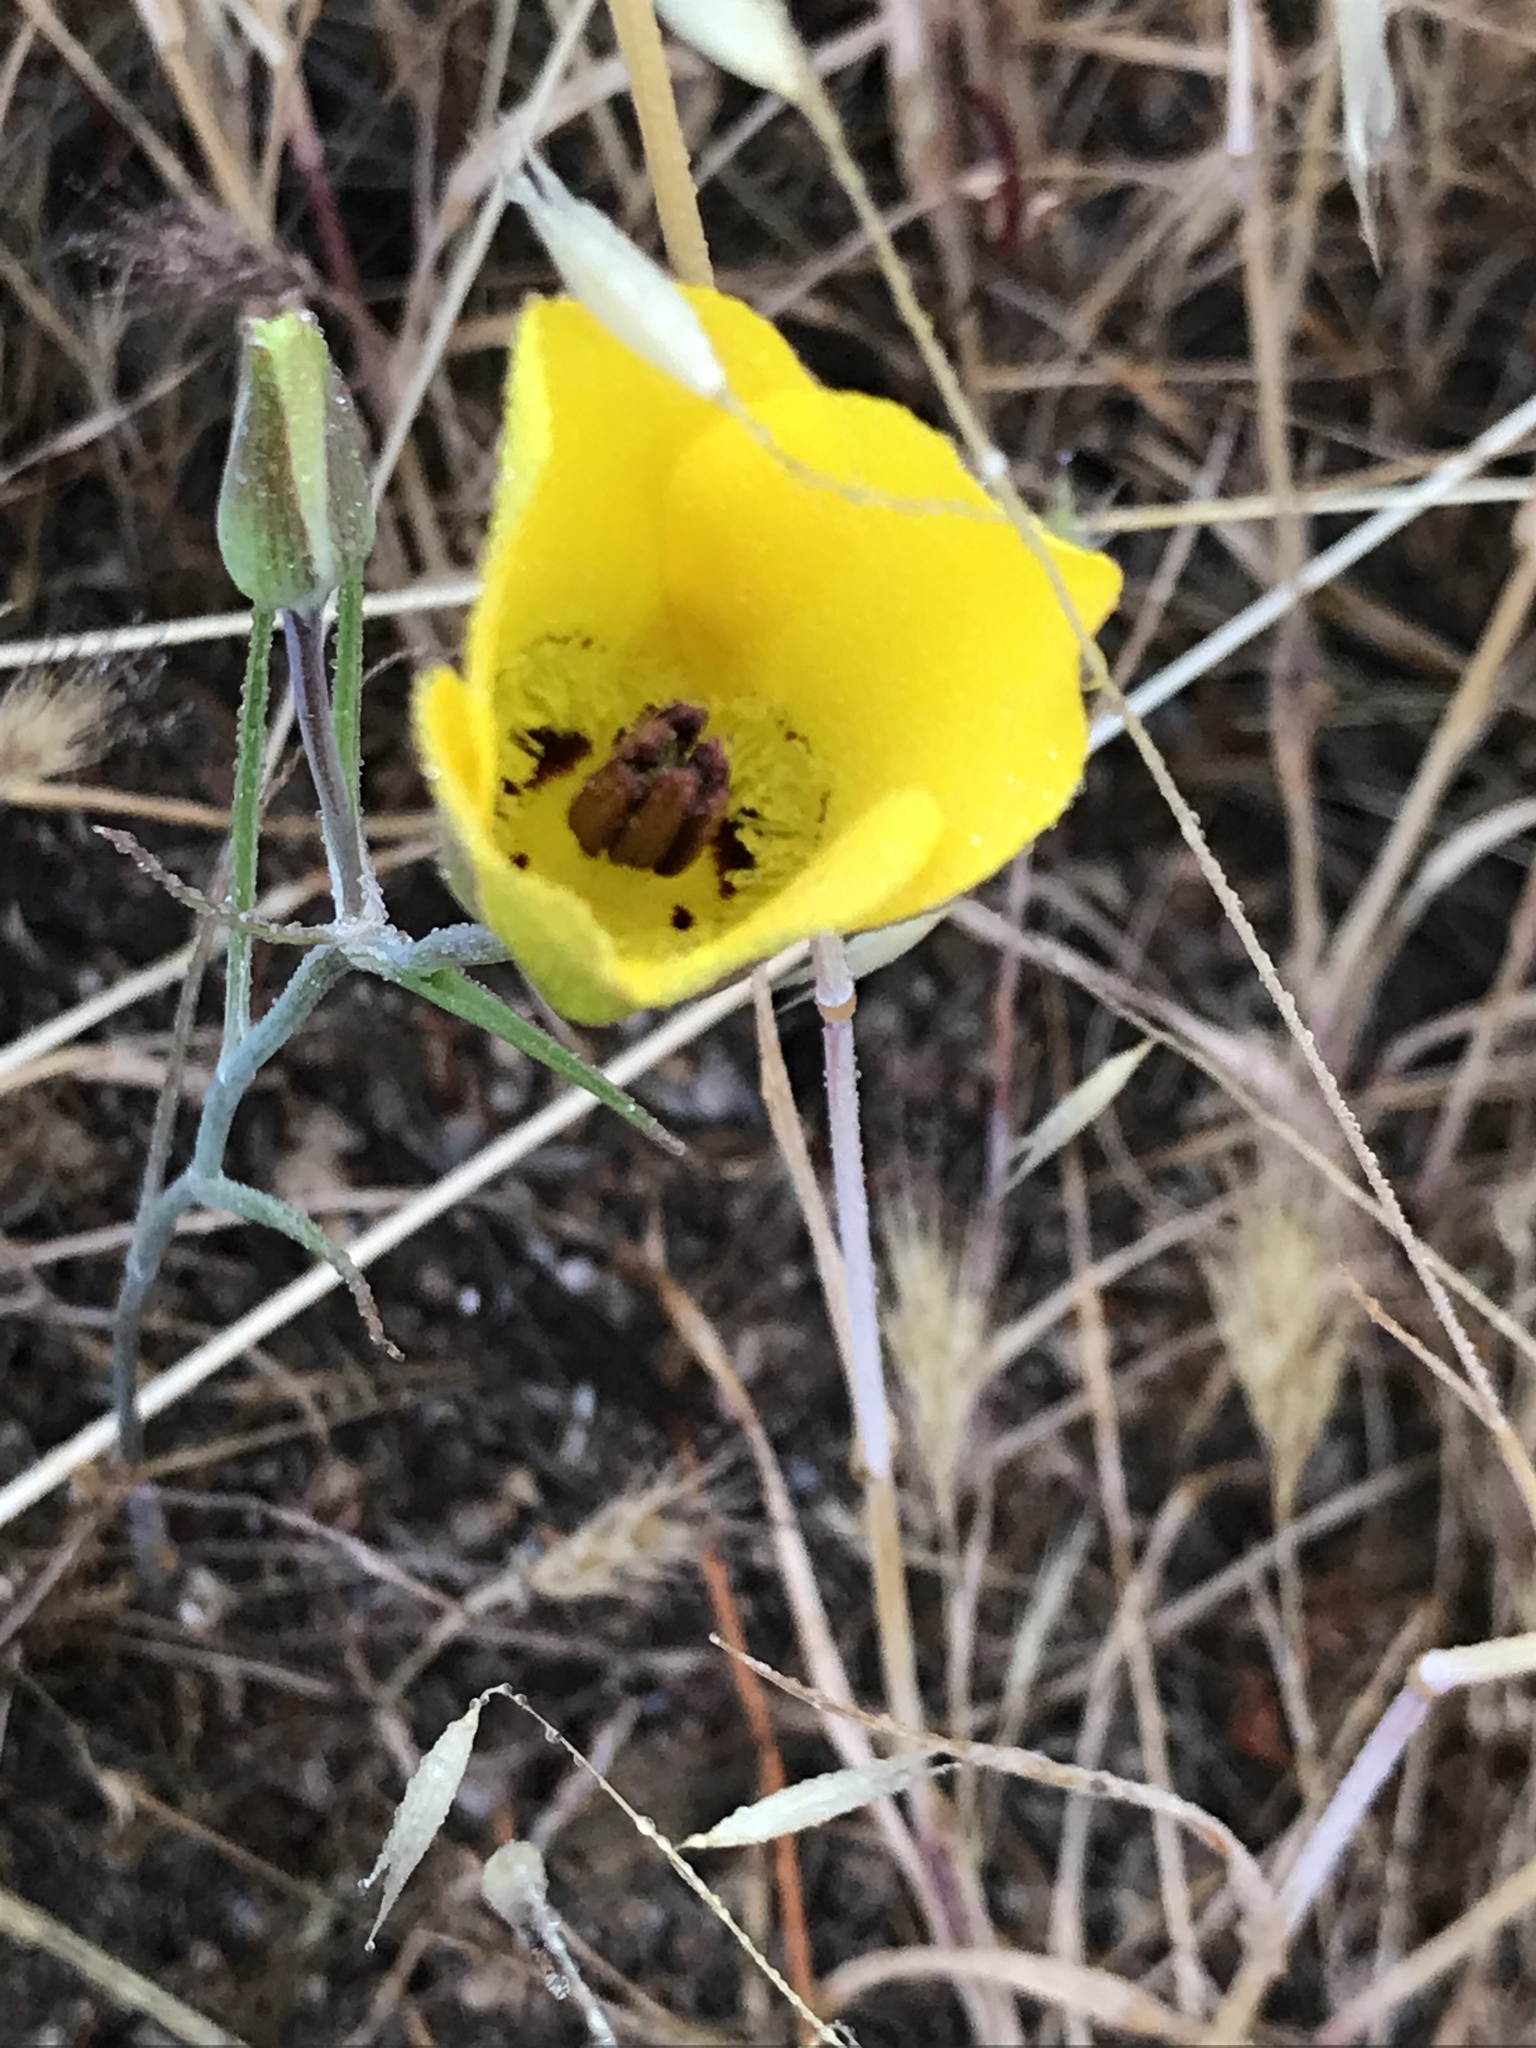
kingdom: Plantae
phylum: Tracheophyta
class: Liliopsida
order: Liliales
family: Liliaceae
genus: Calochortus
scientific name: Calochortus clavatus
